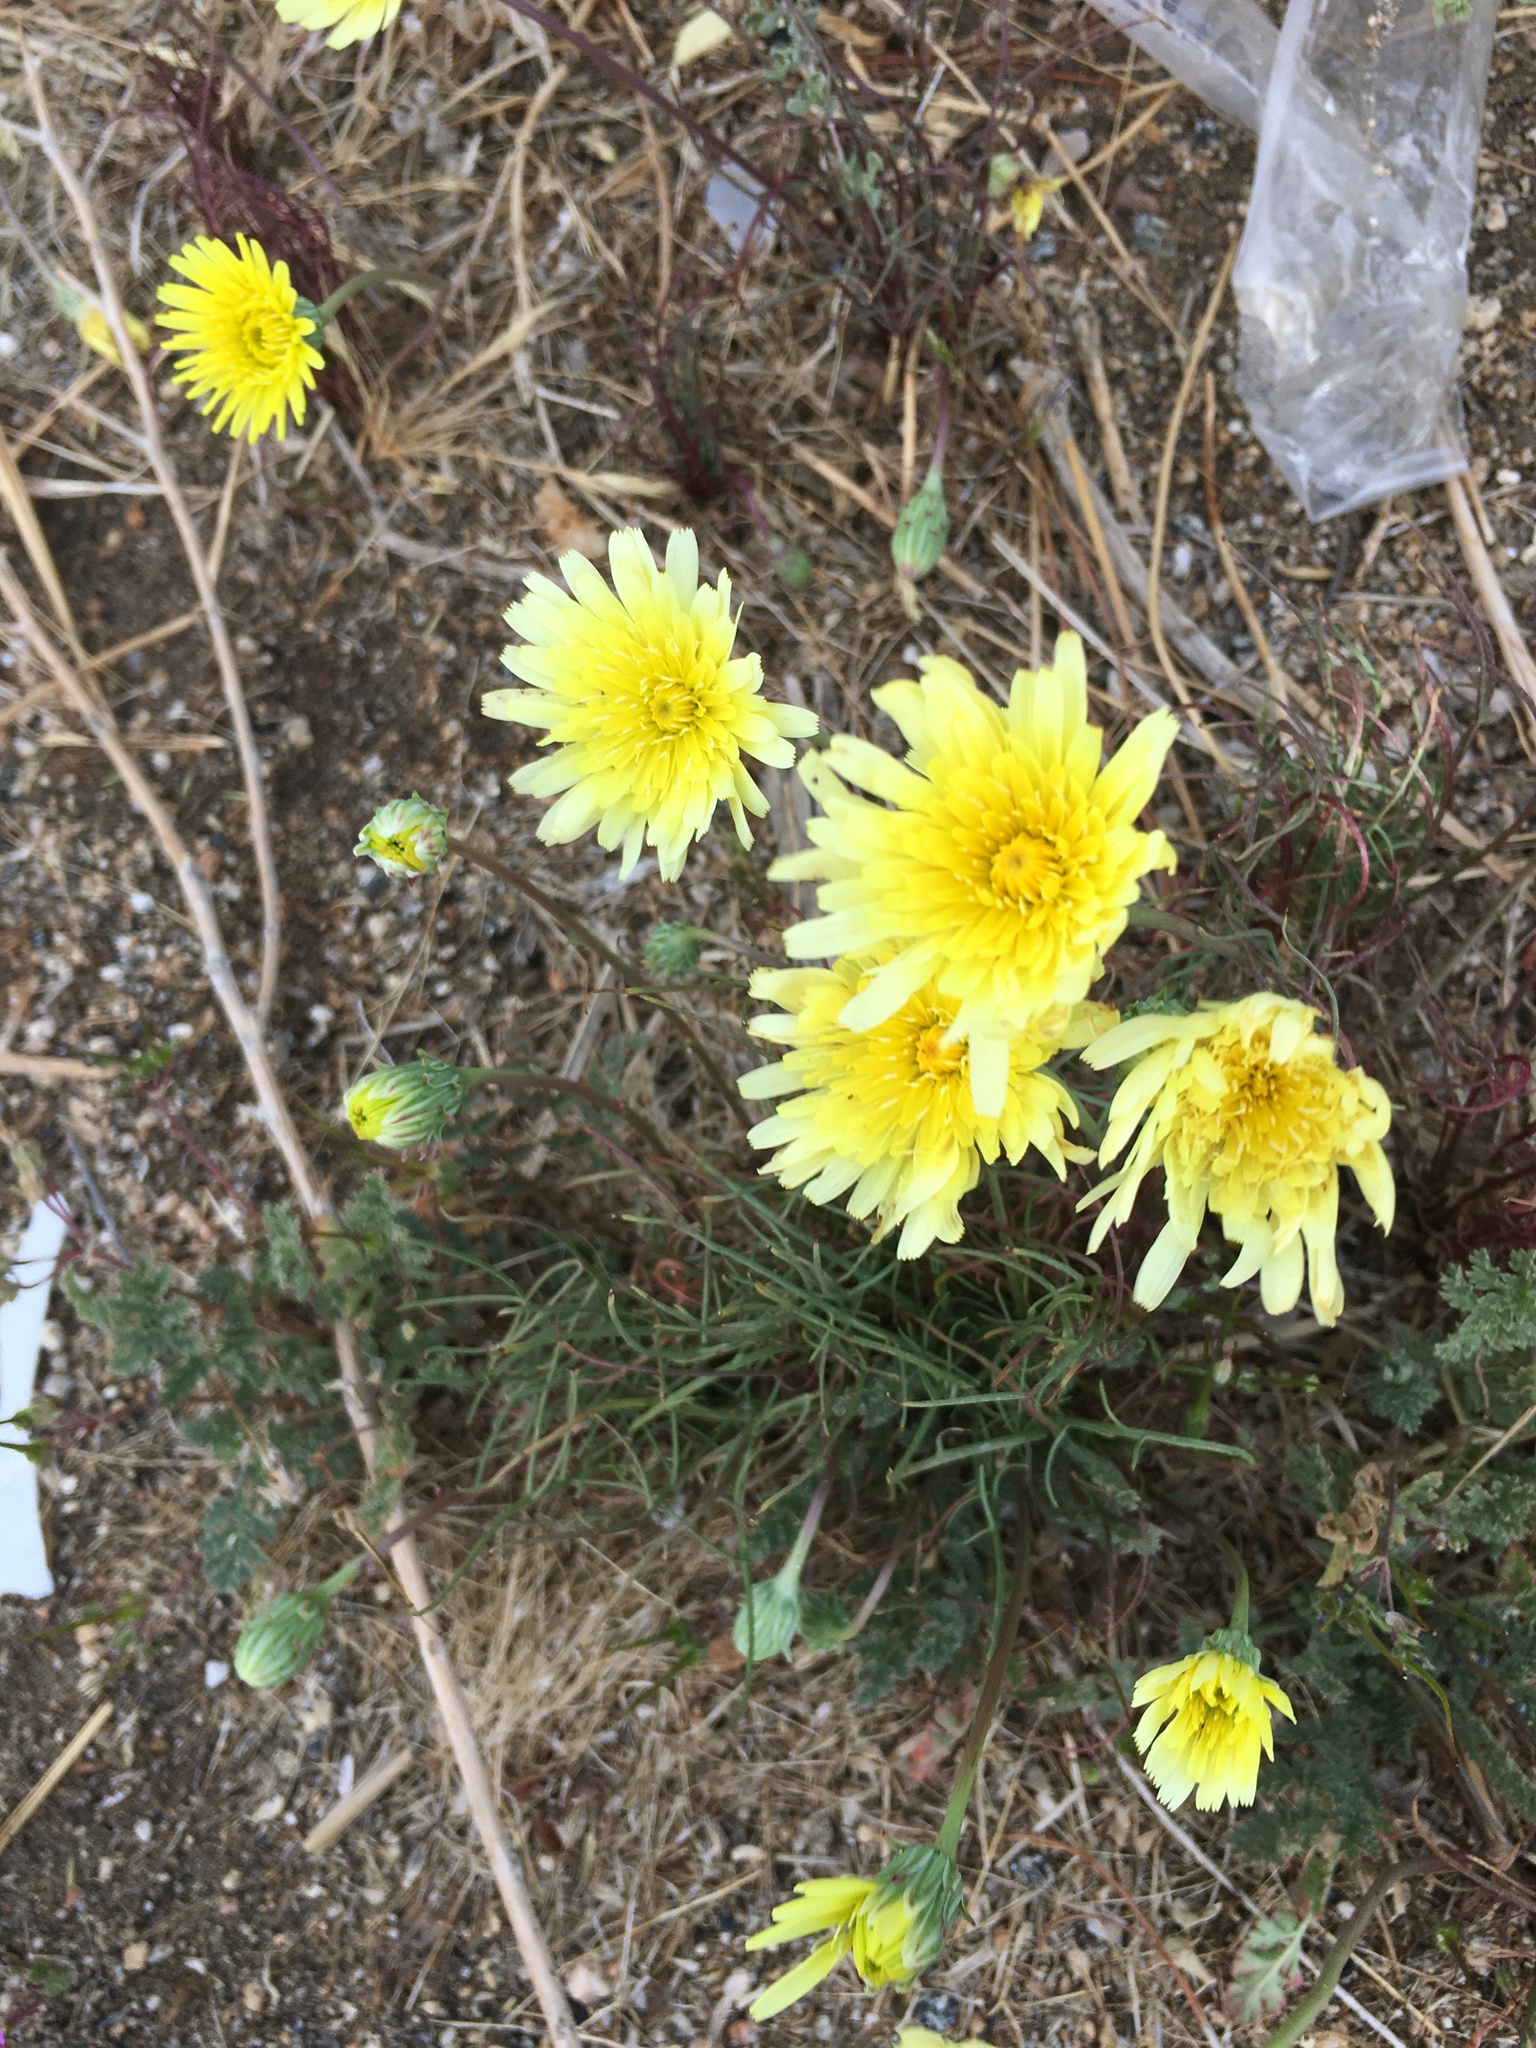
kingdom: Plantae
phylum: Tracheophyta
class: Magnoliopsida
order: Asterales
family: Asteraceae
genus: Malacothrix
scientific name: Malacothrix glabrata
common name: Smooth desert-dandelion
